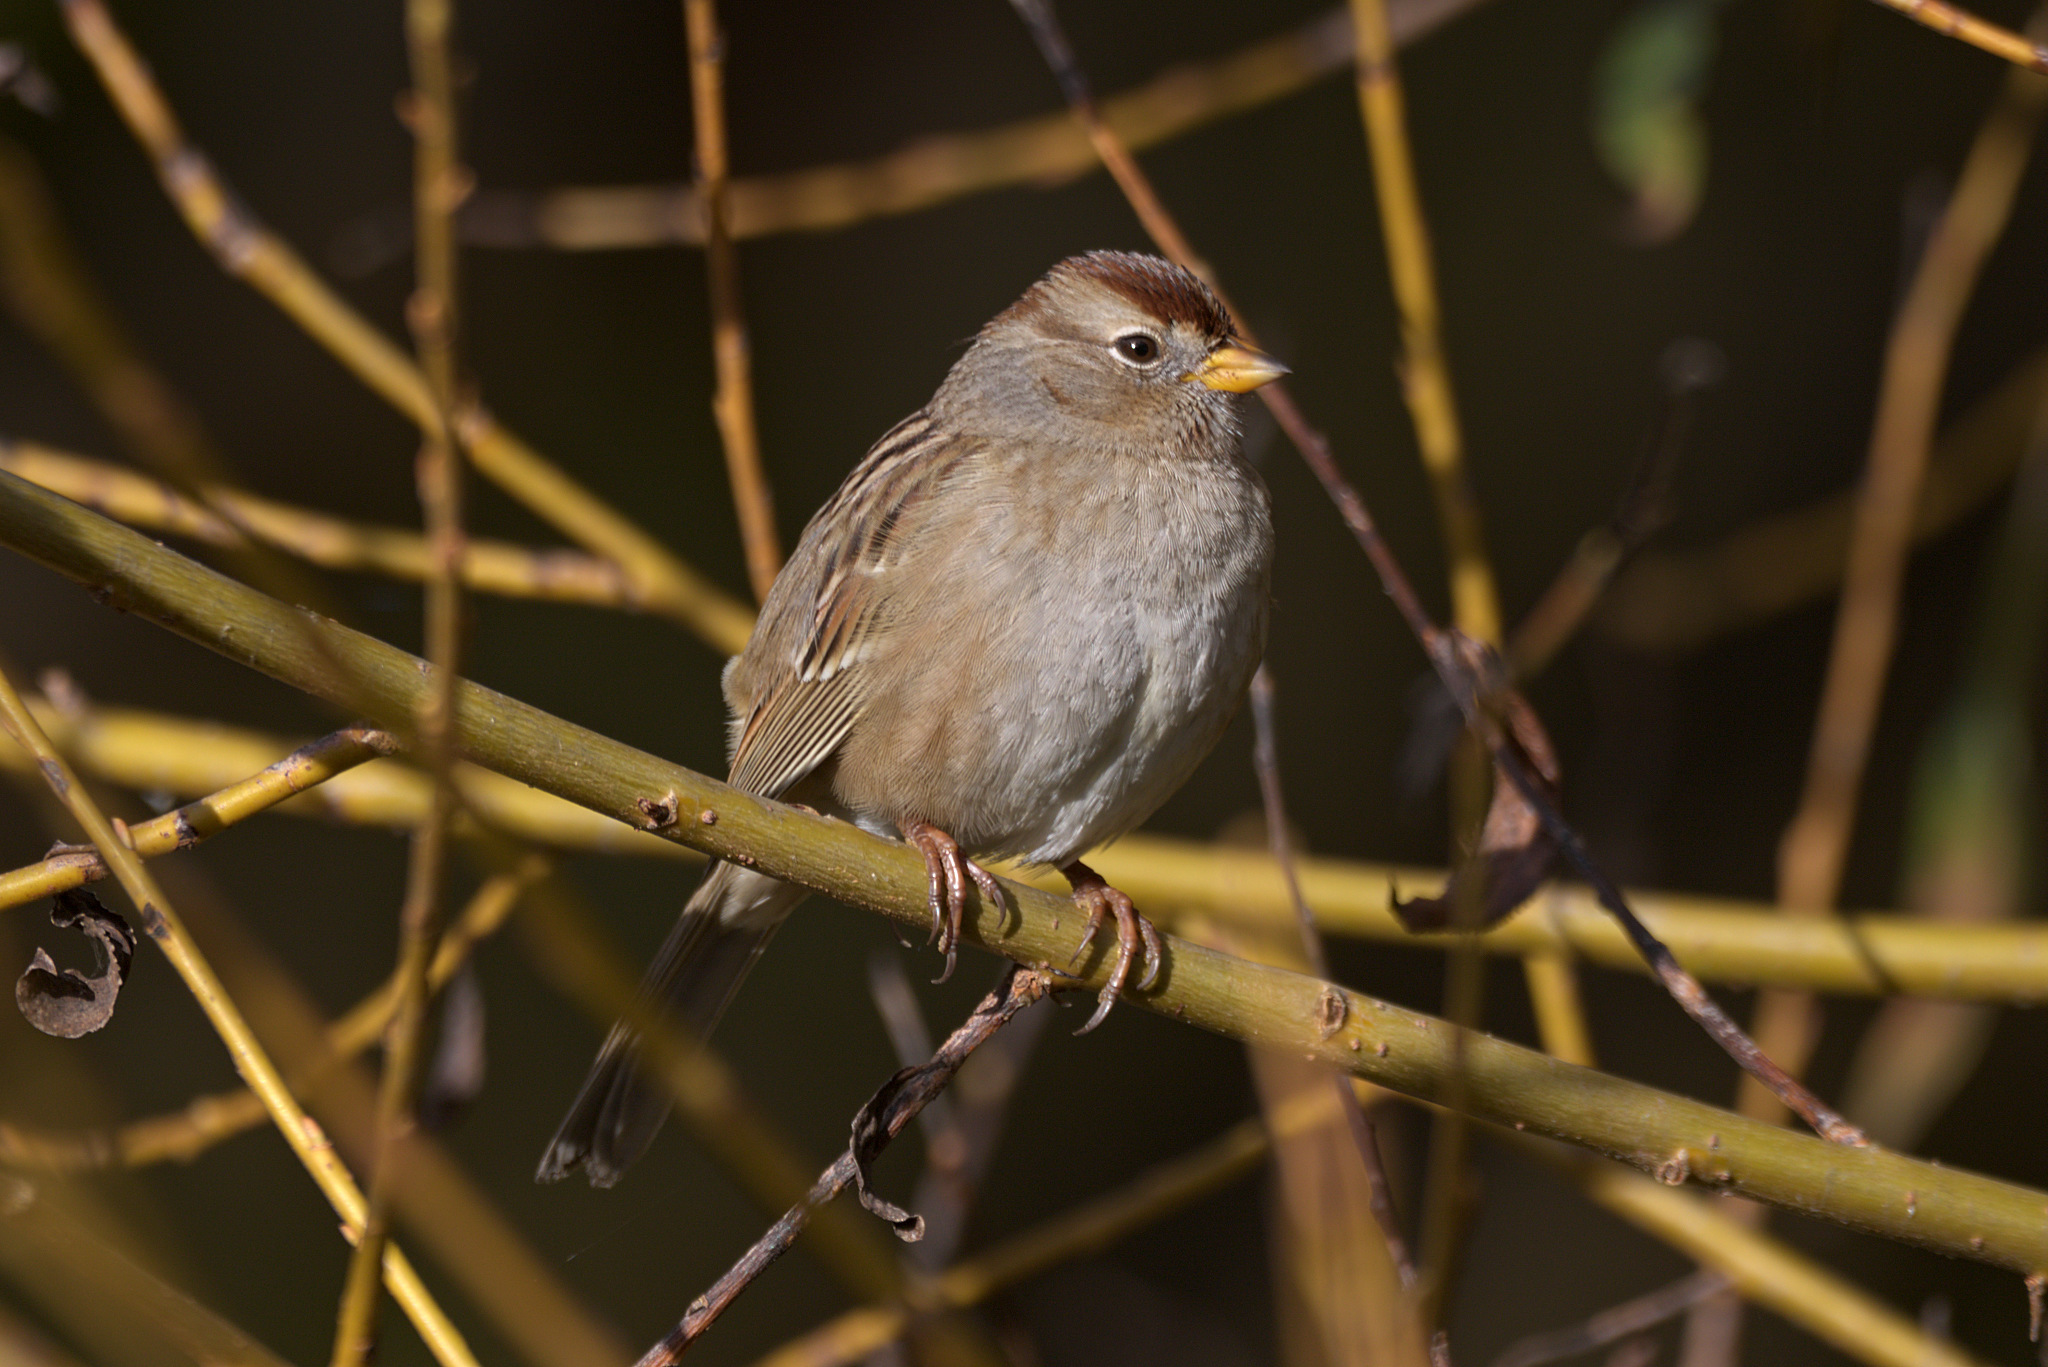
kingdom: Animalia
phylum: Chordata
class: Aves
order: Passeriformes
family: Passerellidae
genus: Zonotrichia
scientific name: Zonotrichia leucophrys
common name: White-crowned sparrow
